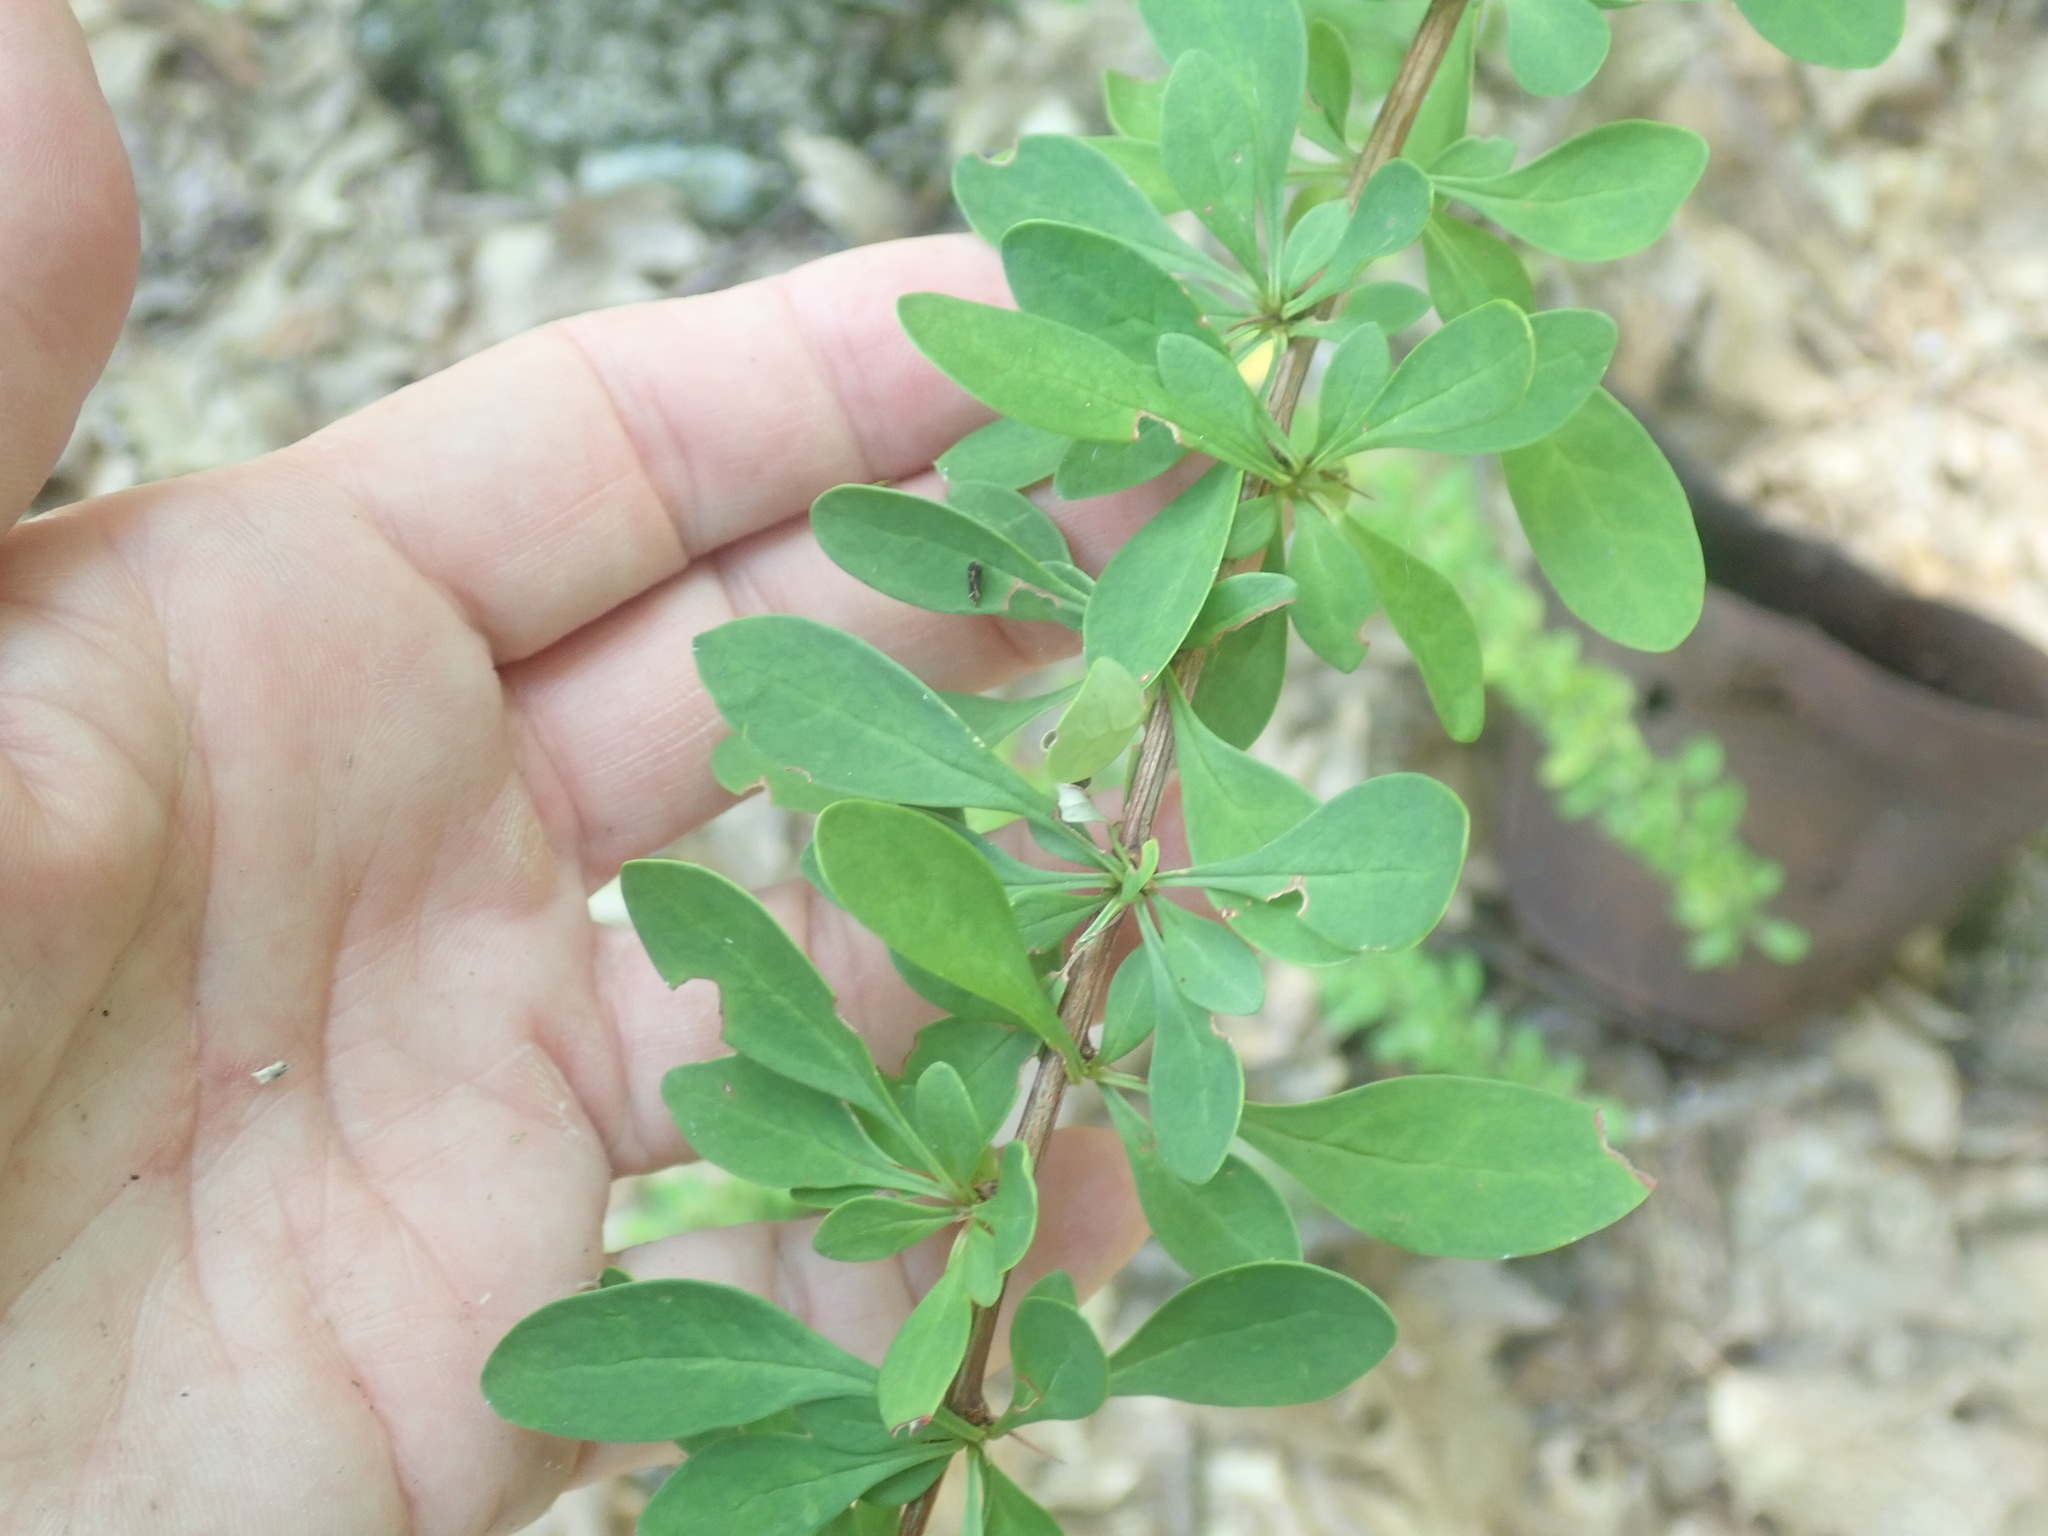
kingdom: Plantae
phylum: Tracheophyta
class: Magnoliopsida
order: Ranunculales
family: Berberidaceae
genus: Berberis
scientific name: Berberis thunbergii
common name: Japanese barberry
